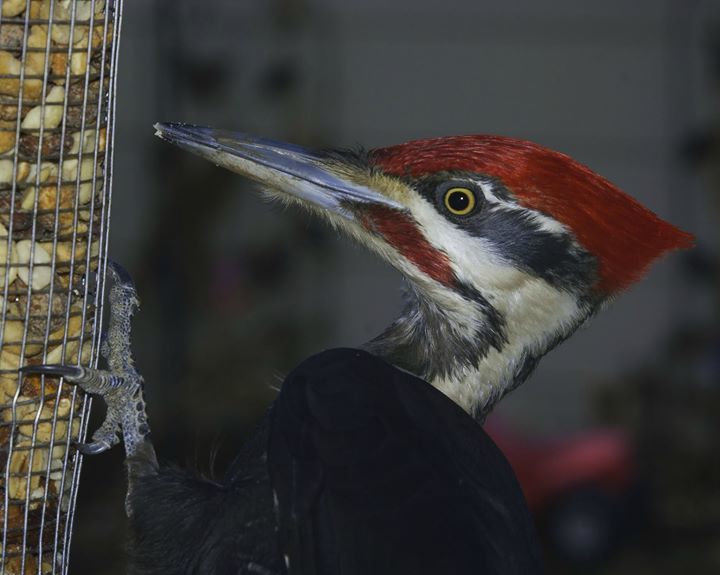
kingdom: Animalia
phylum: Chordata
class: Aves
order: Piciformes
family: Picidae
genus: Dryocopus
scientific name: Dryocopus pileatus
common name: Pileated woodpecker
